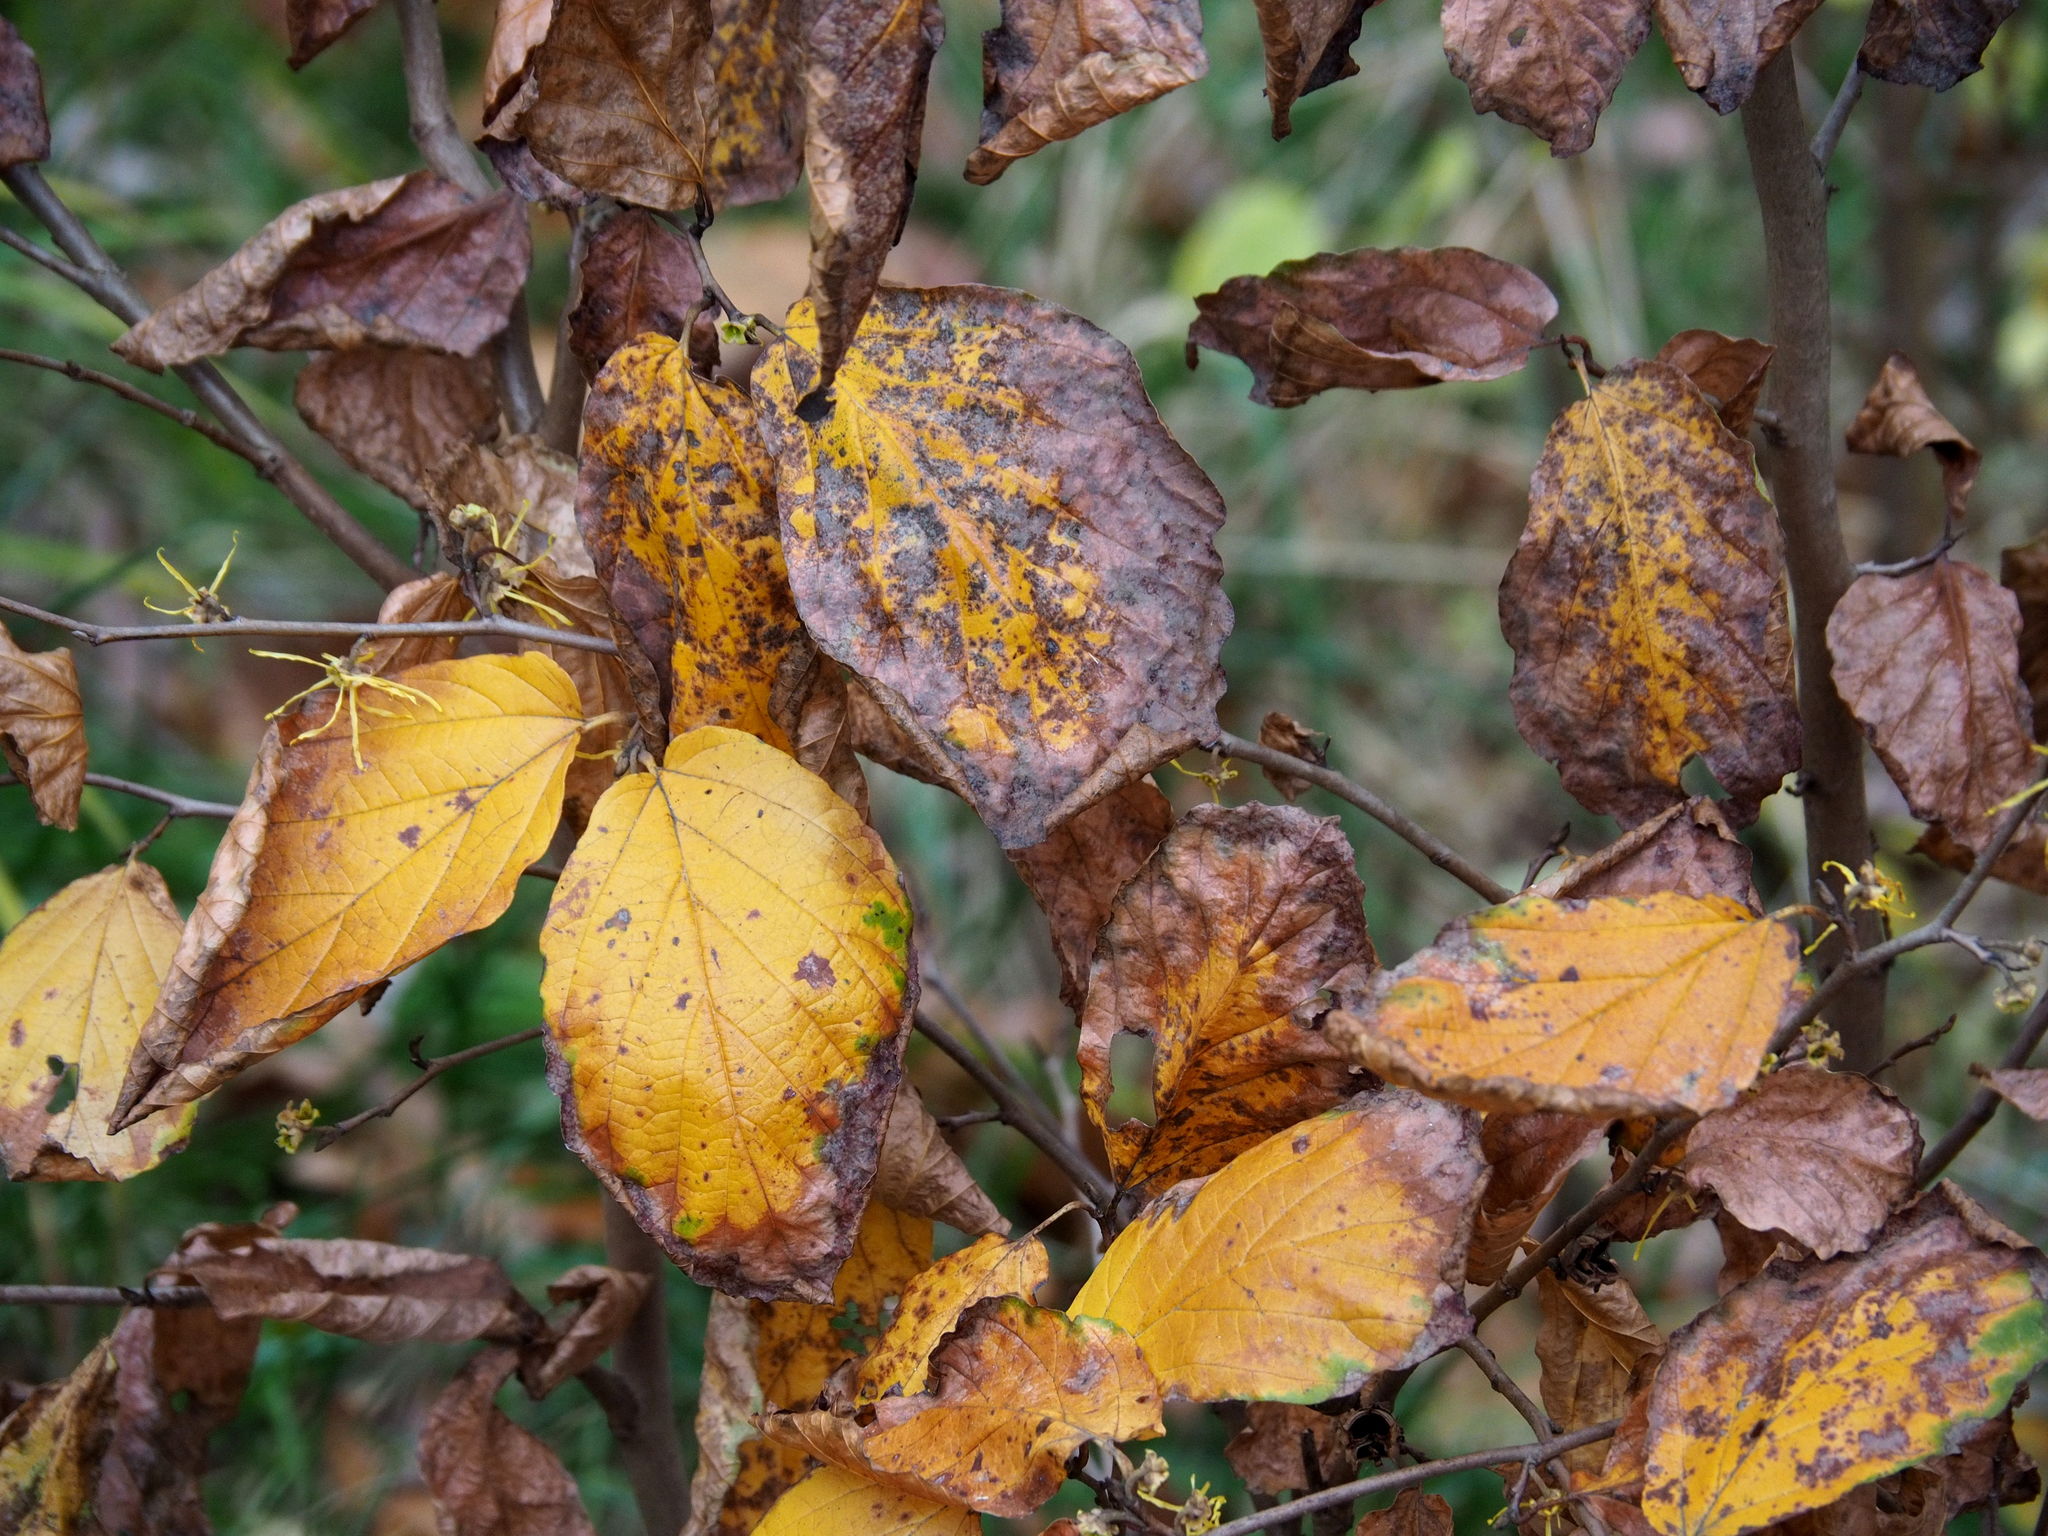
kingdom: Plantae
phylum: Tracheophyta
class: Magnoliopsida
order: Saxifragales
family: Hamamelidaceae
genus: Hamamelis
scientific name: Hamamelis virginiana
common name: Witch-hazel
